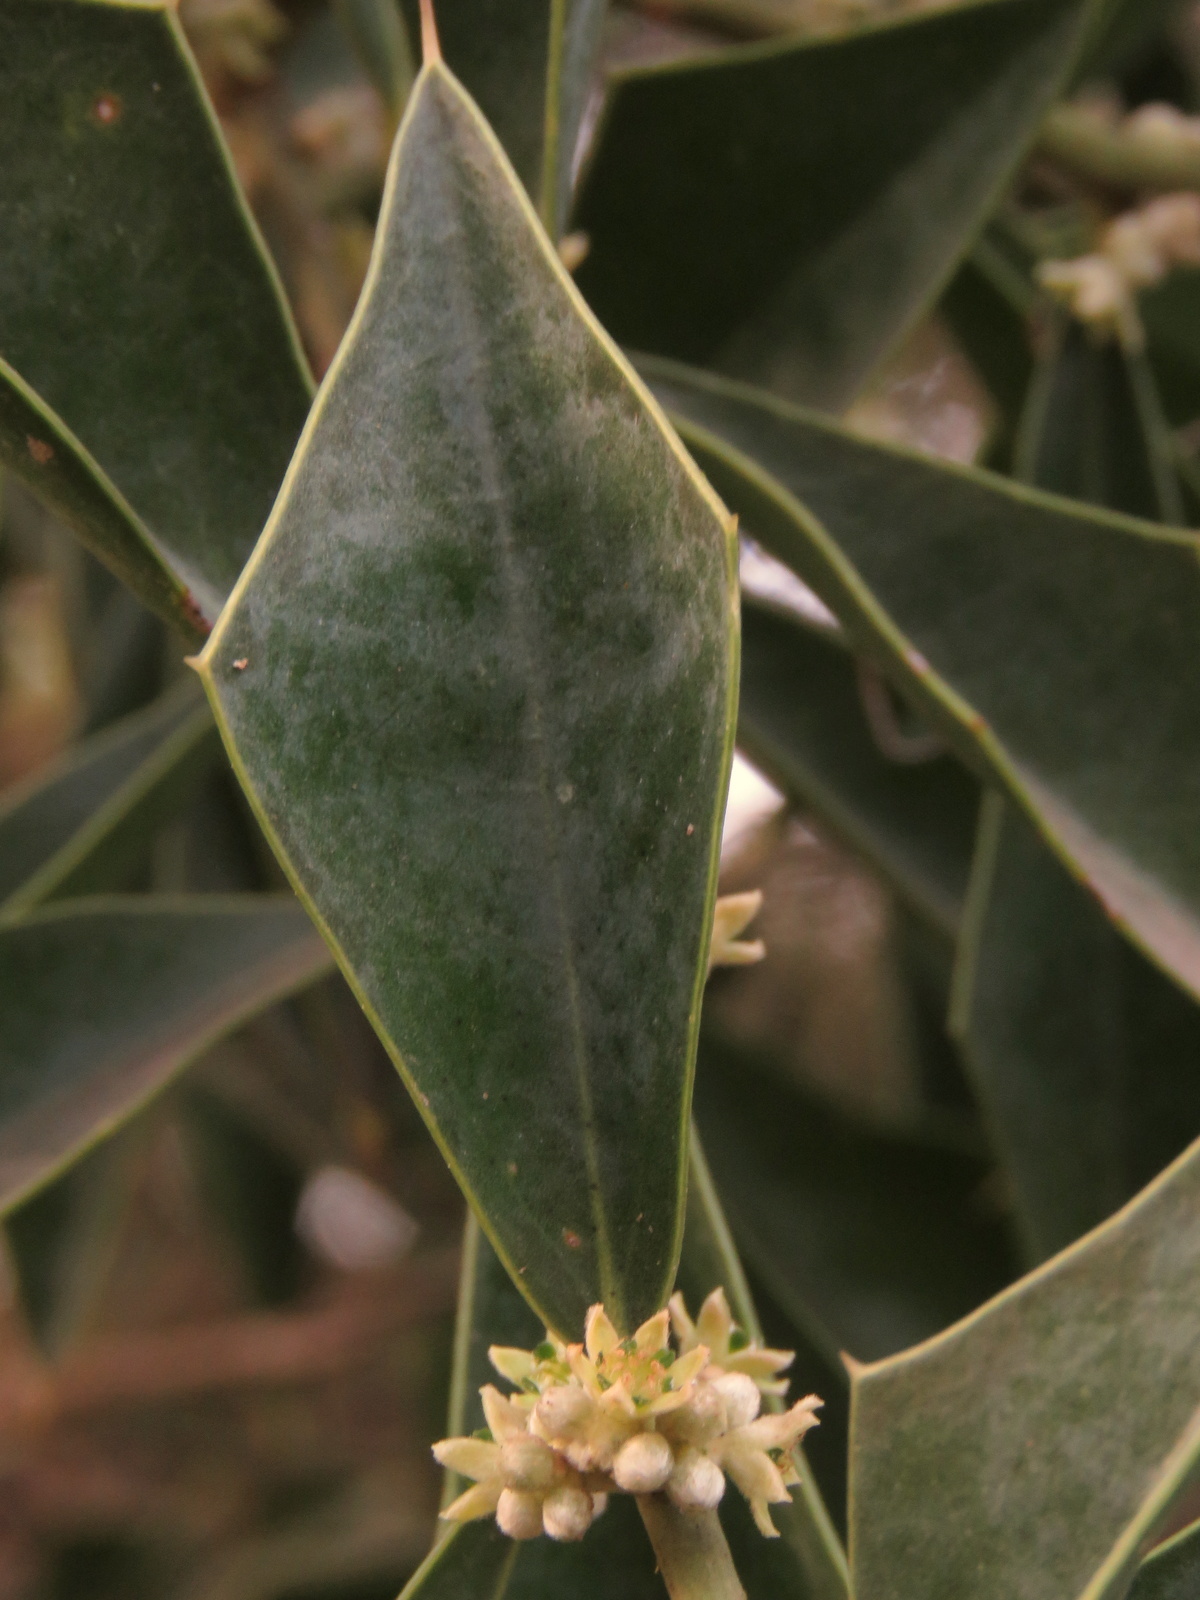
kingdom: Plantae
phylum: Tracheophyta
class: Magnoliopsida
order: Santalales
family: Cervantesiaceae
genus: Jodina
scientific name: Jodina rhombifolia
